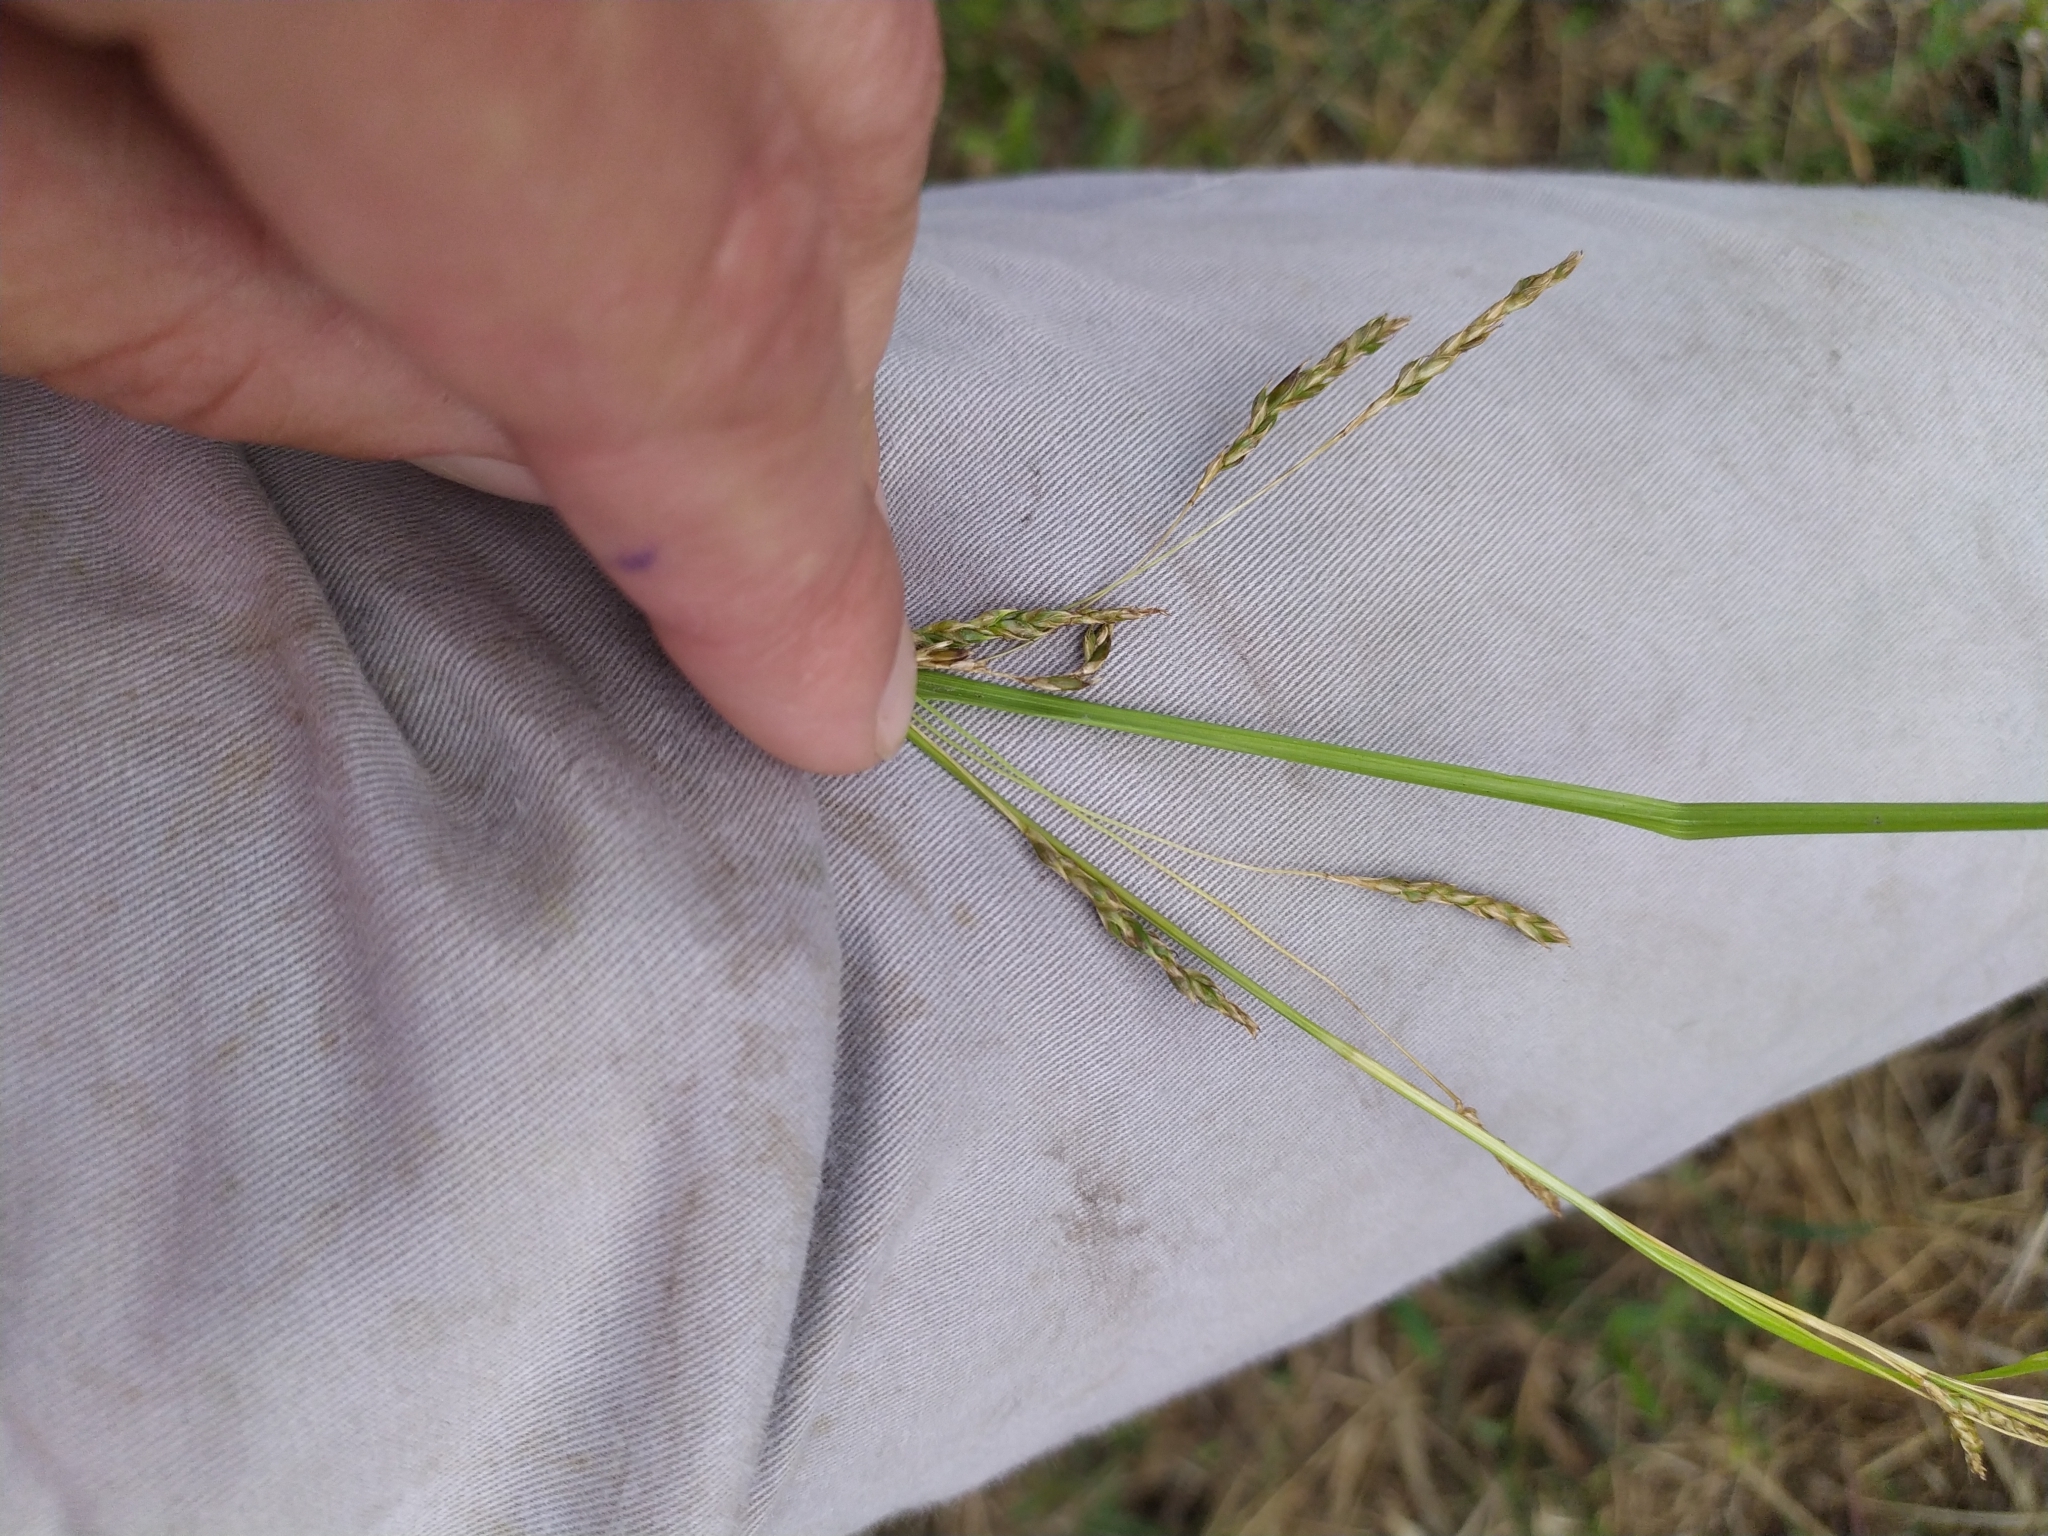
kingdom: Plantae
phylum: Tracheophyta
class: Liliopsida
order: Poales
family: Cyperaceae
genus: Carex
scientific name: Carex longebrachiata
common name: Drooping sedge
